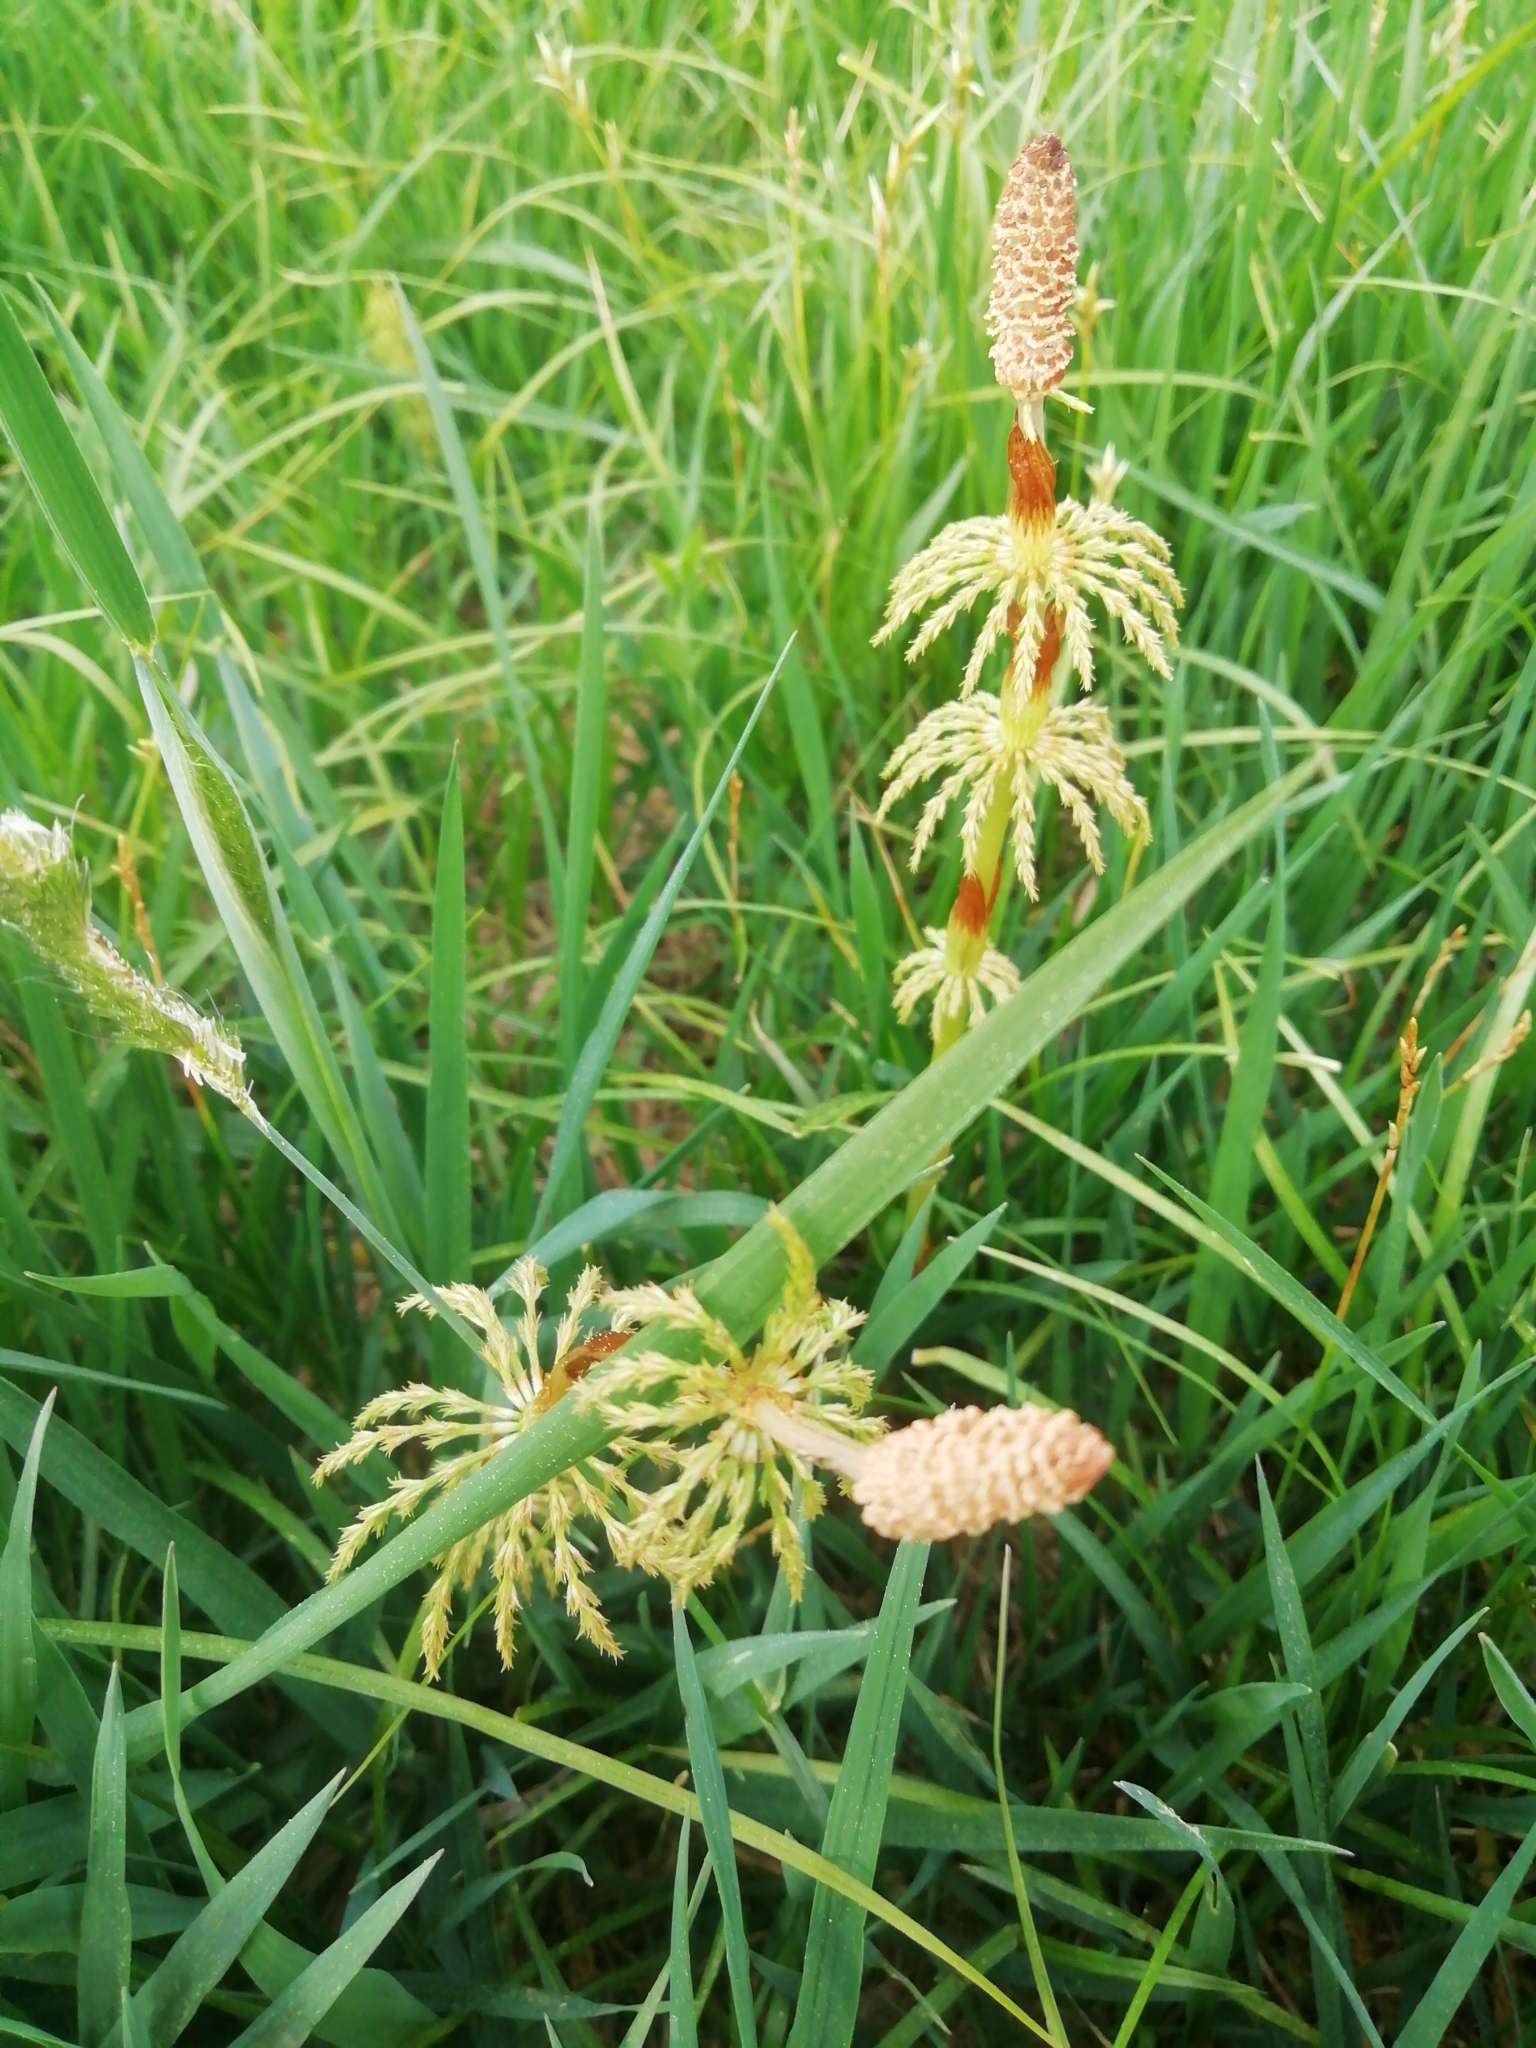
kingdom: Plantae
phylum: Tracheophyta
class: Polypodiopsida
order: Equisetales
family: Equisetaceae
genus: Equisetum
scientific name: Equisetum sylvaticum
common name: Wood horsetail
